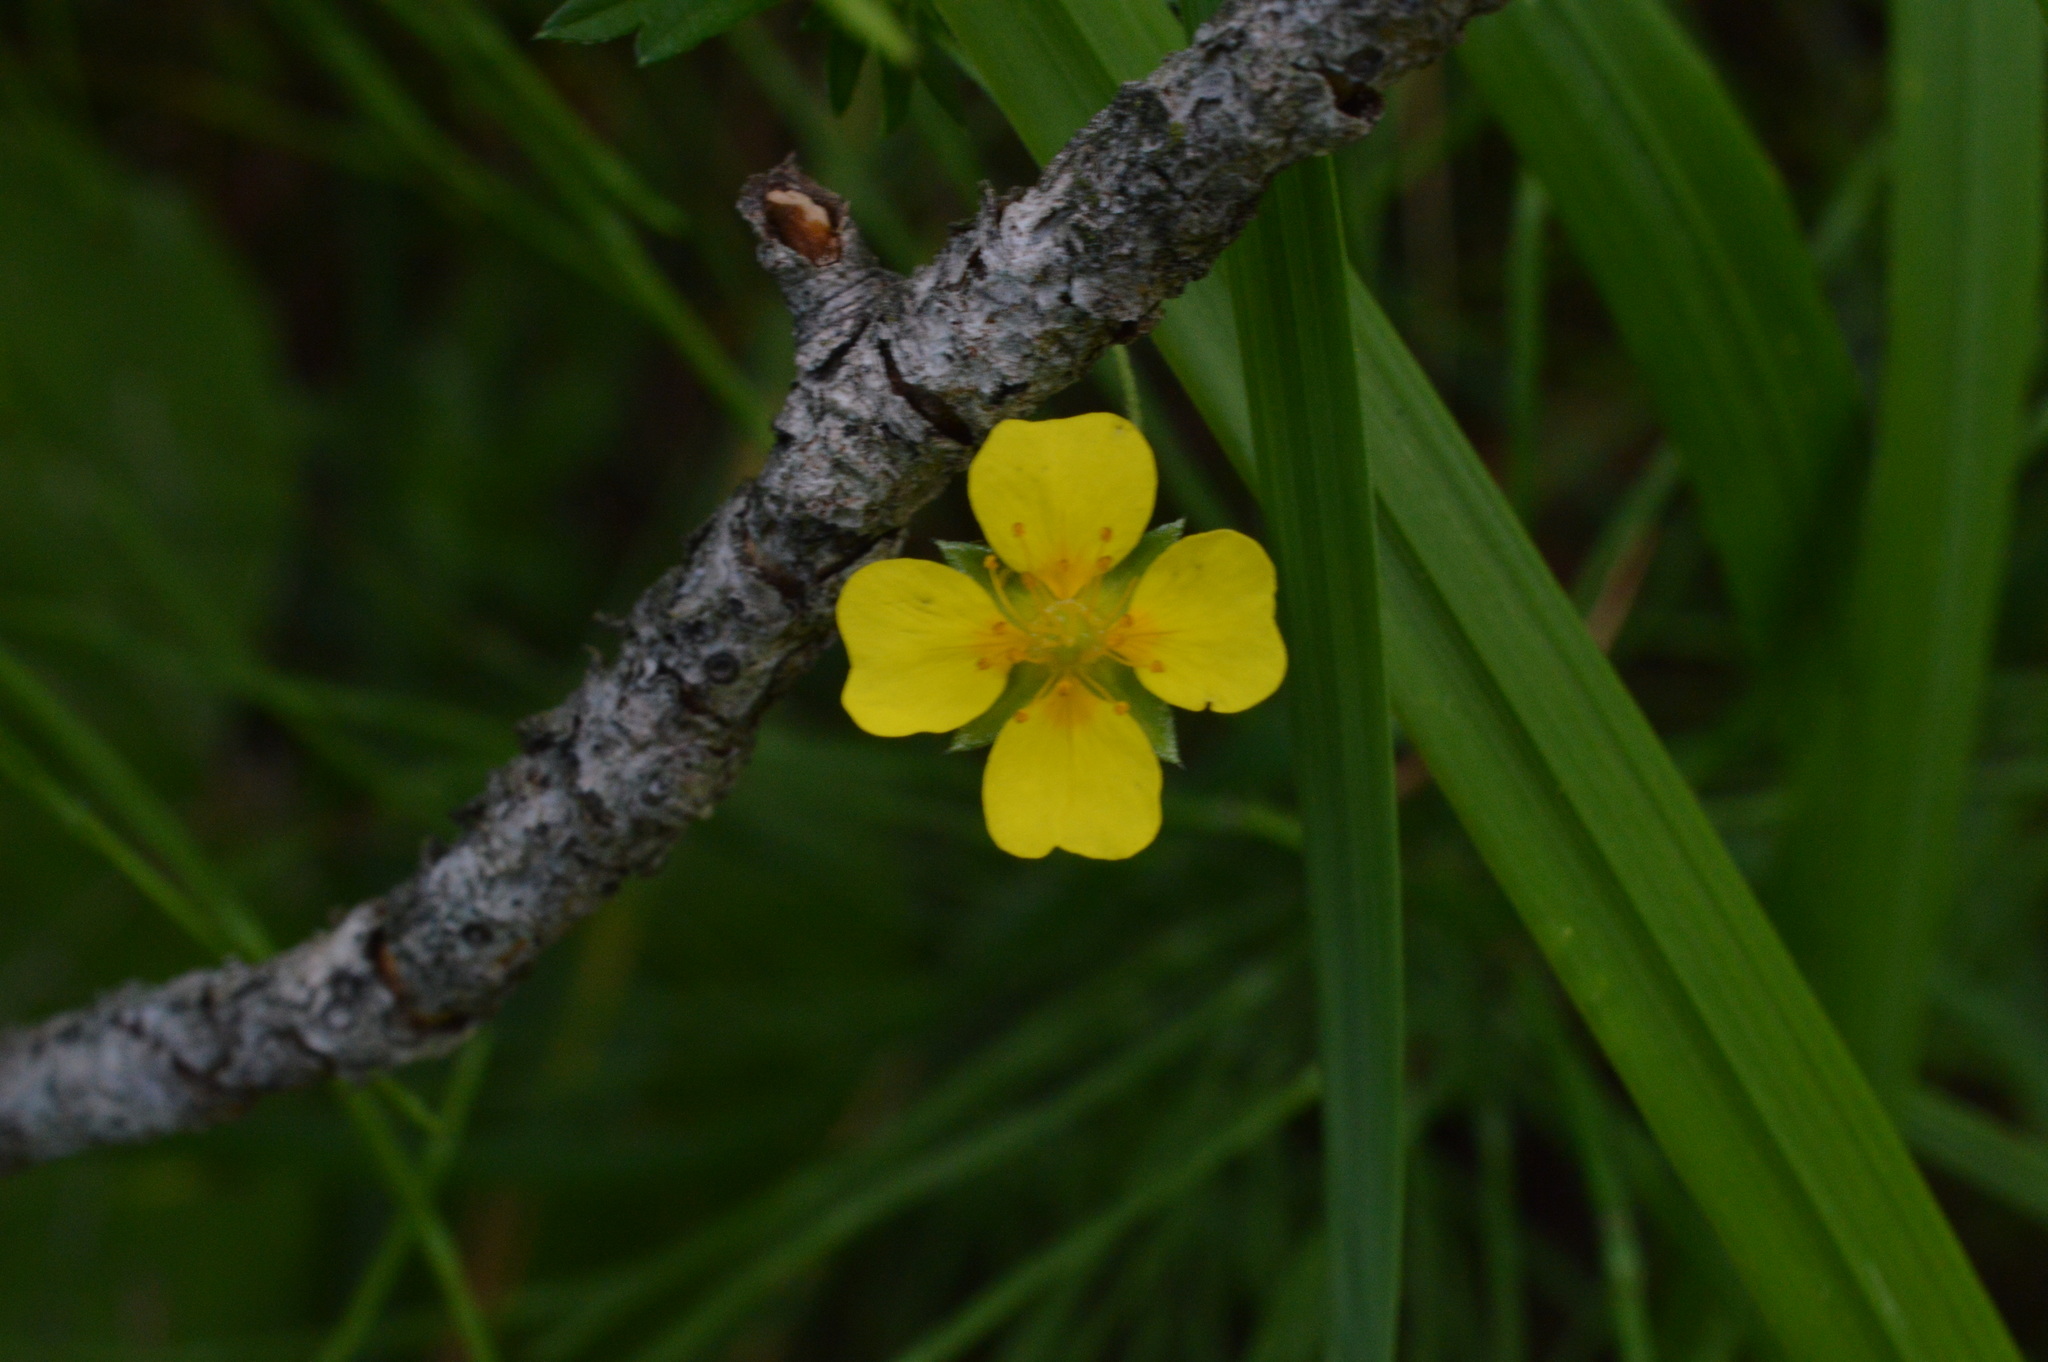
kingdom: Plantae
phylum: Tracheophyta
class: Magnoliopsida
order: Rosales
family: Rosaceae
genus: Potentilla
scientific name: Potentilla erecta
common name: Tormentil
